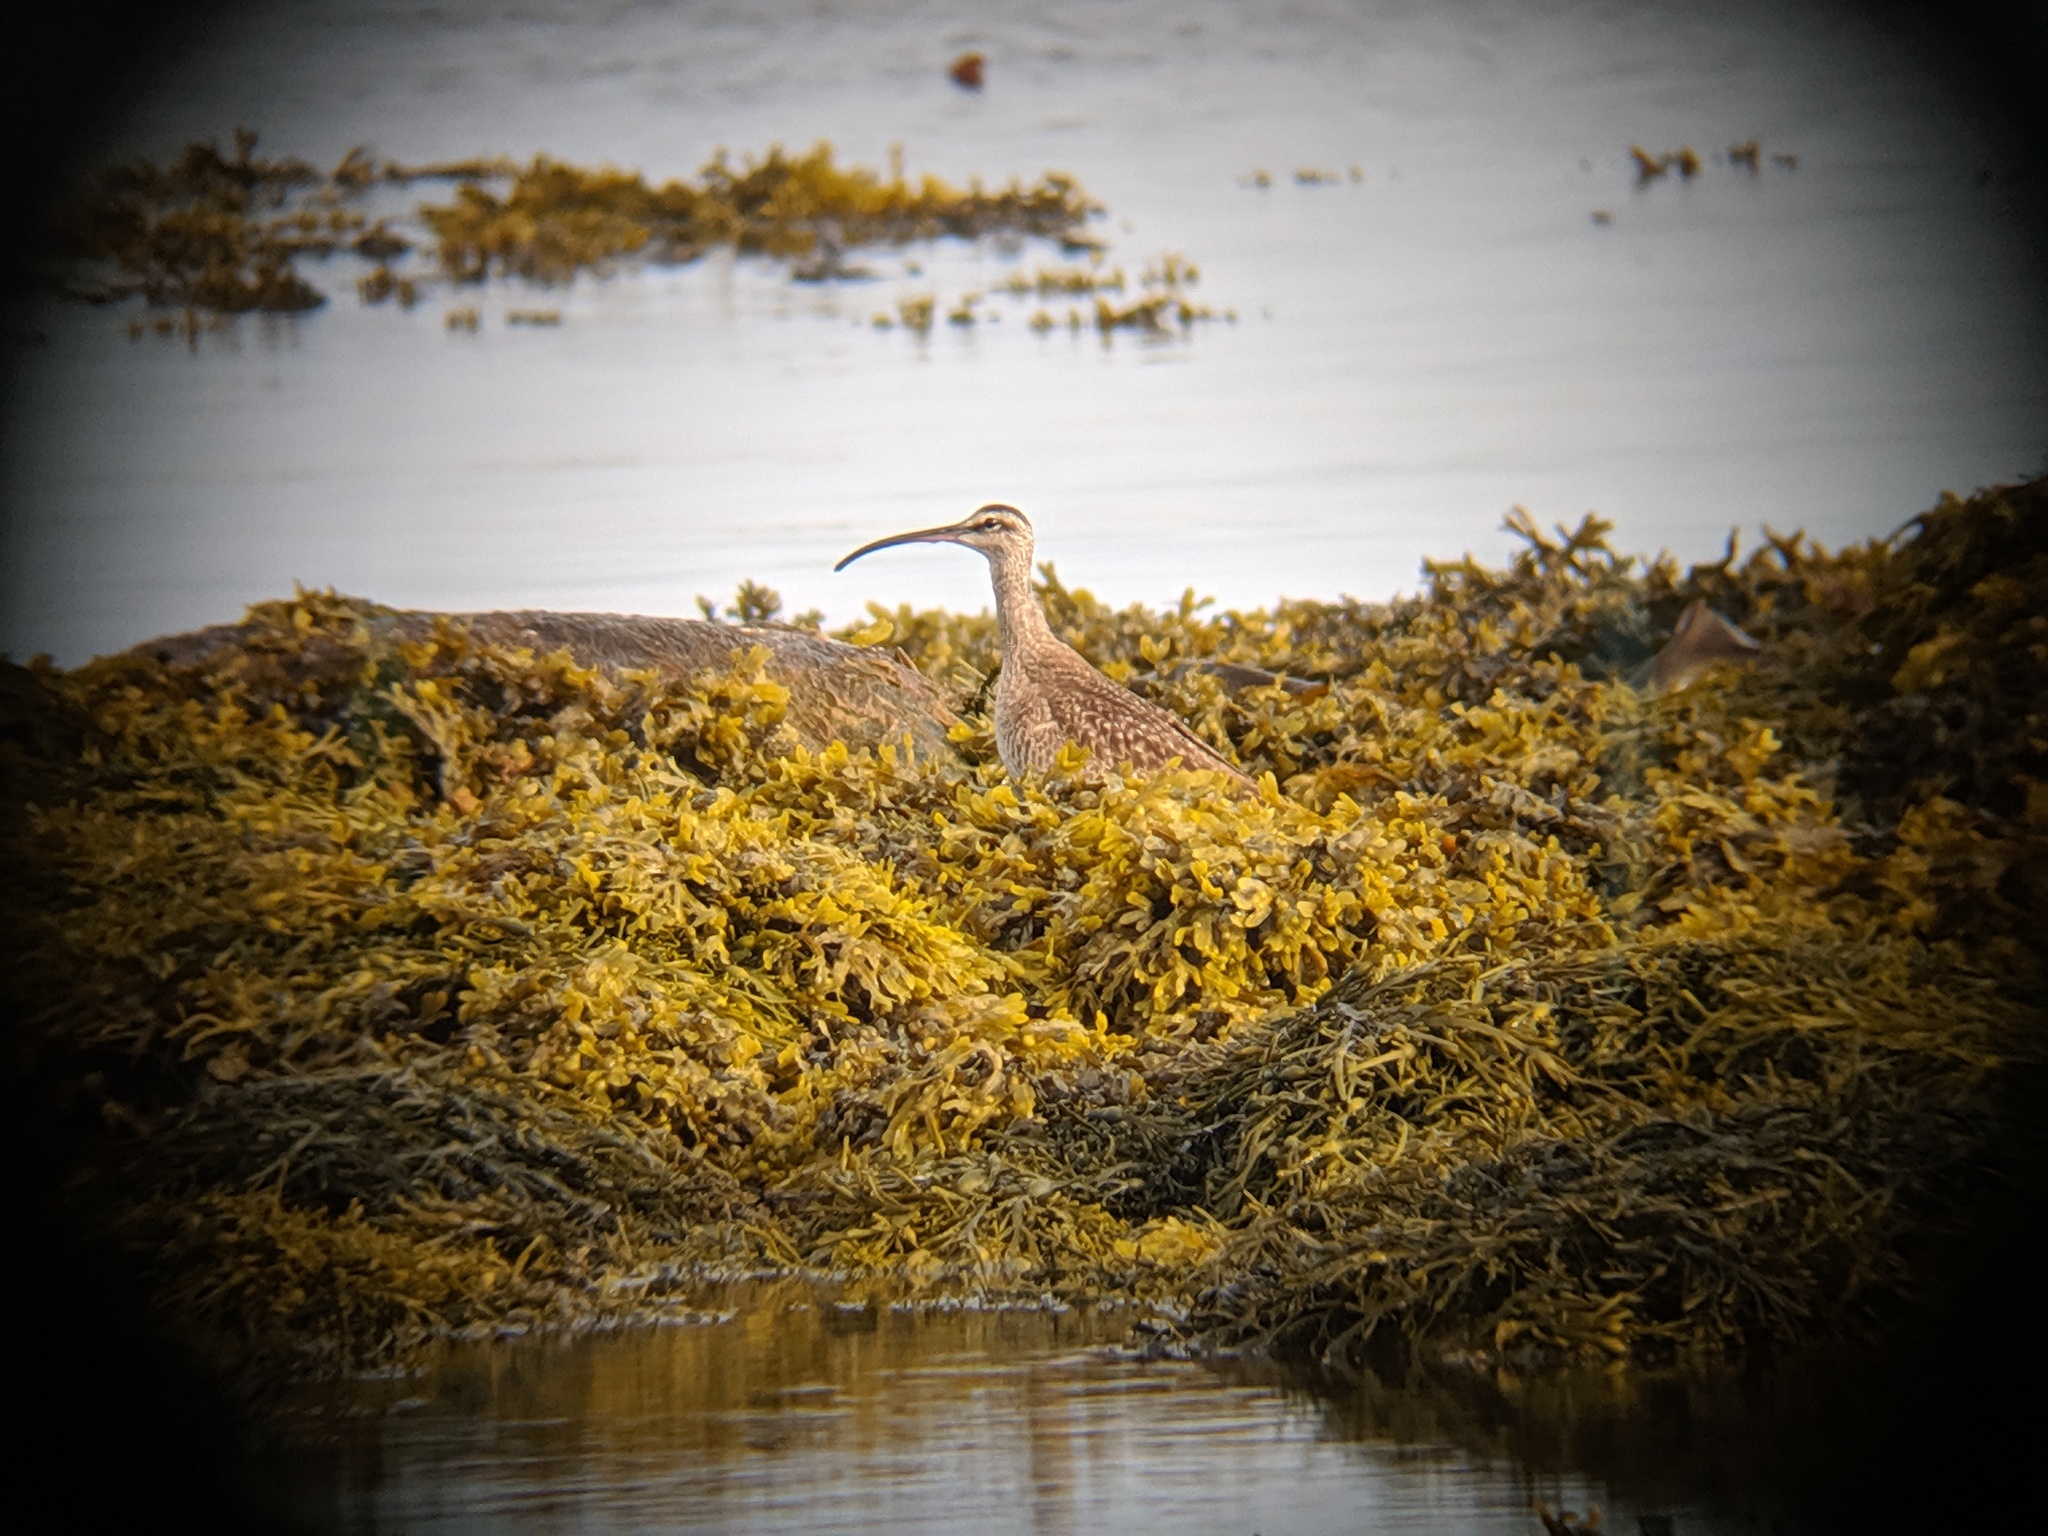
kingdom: Animalia
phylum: Chordata
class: Aves
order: Charadriiformes
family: Scolopacidae
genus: Numenius
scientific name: Numenius phaeopus
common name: Whimbrel
